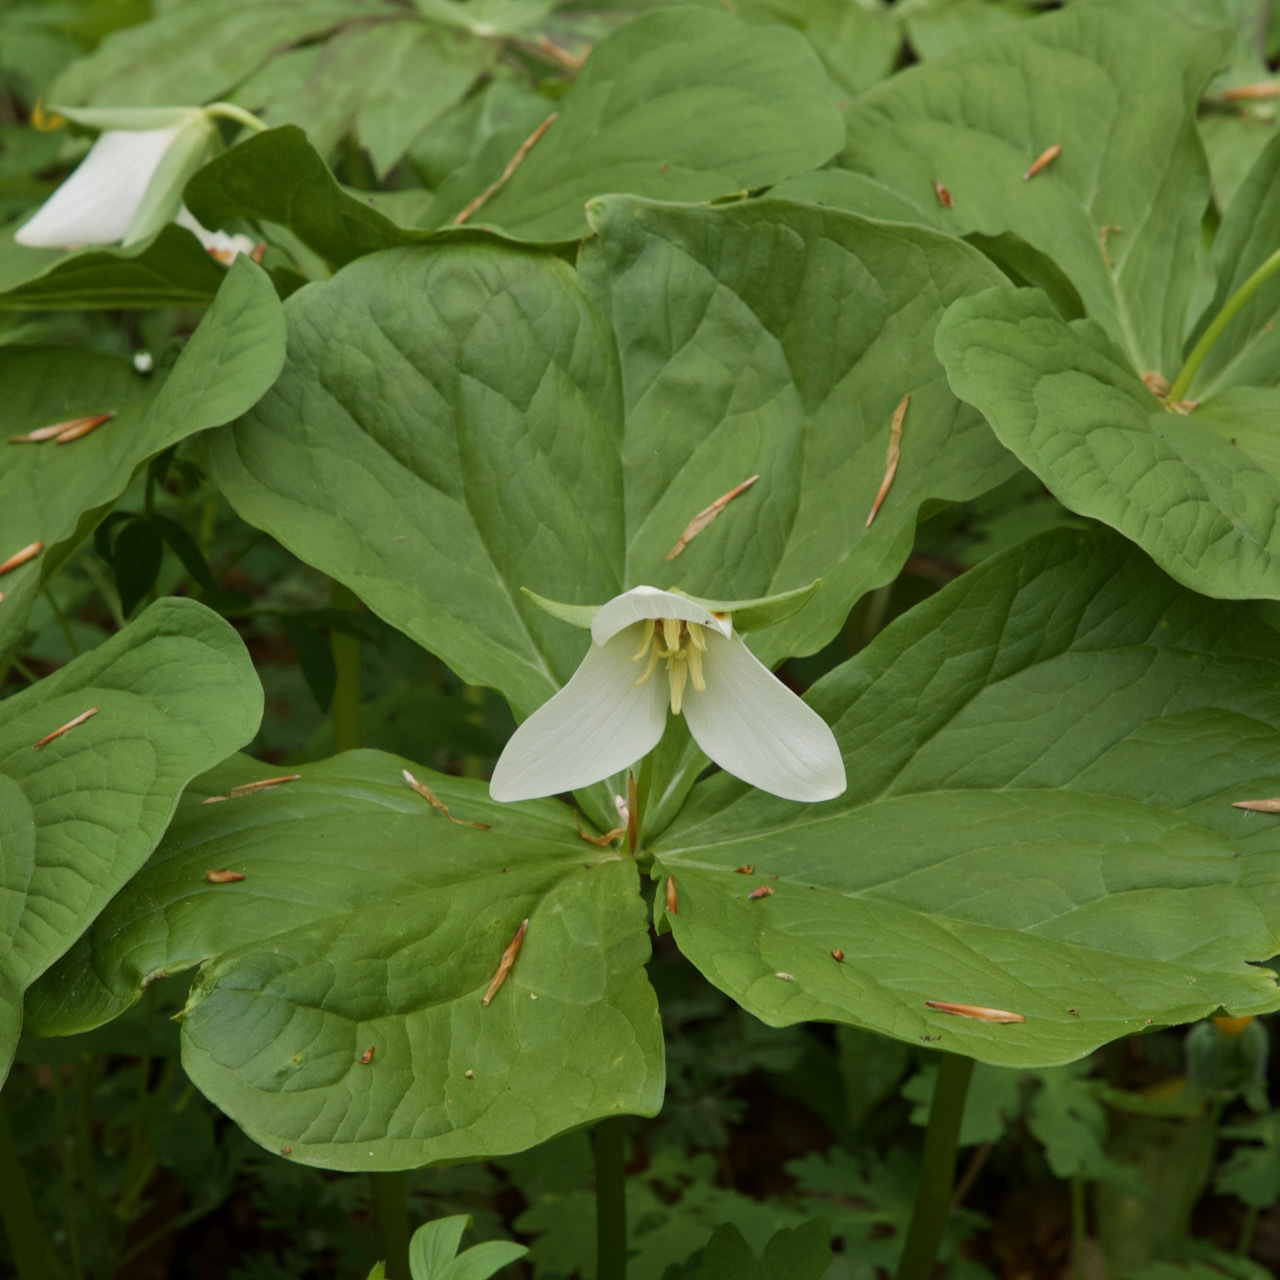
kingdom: Plantae
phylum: Tracheophyta
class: Liliopsida
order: Liliales
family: Melanthiaceae
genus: Trillium
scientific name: Trillium erectum
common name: Purple trillium
